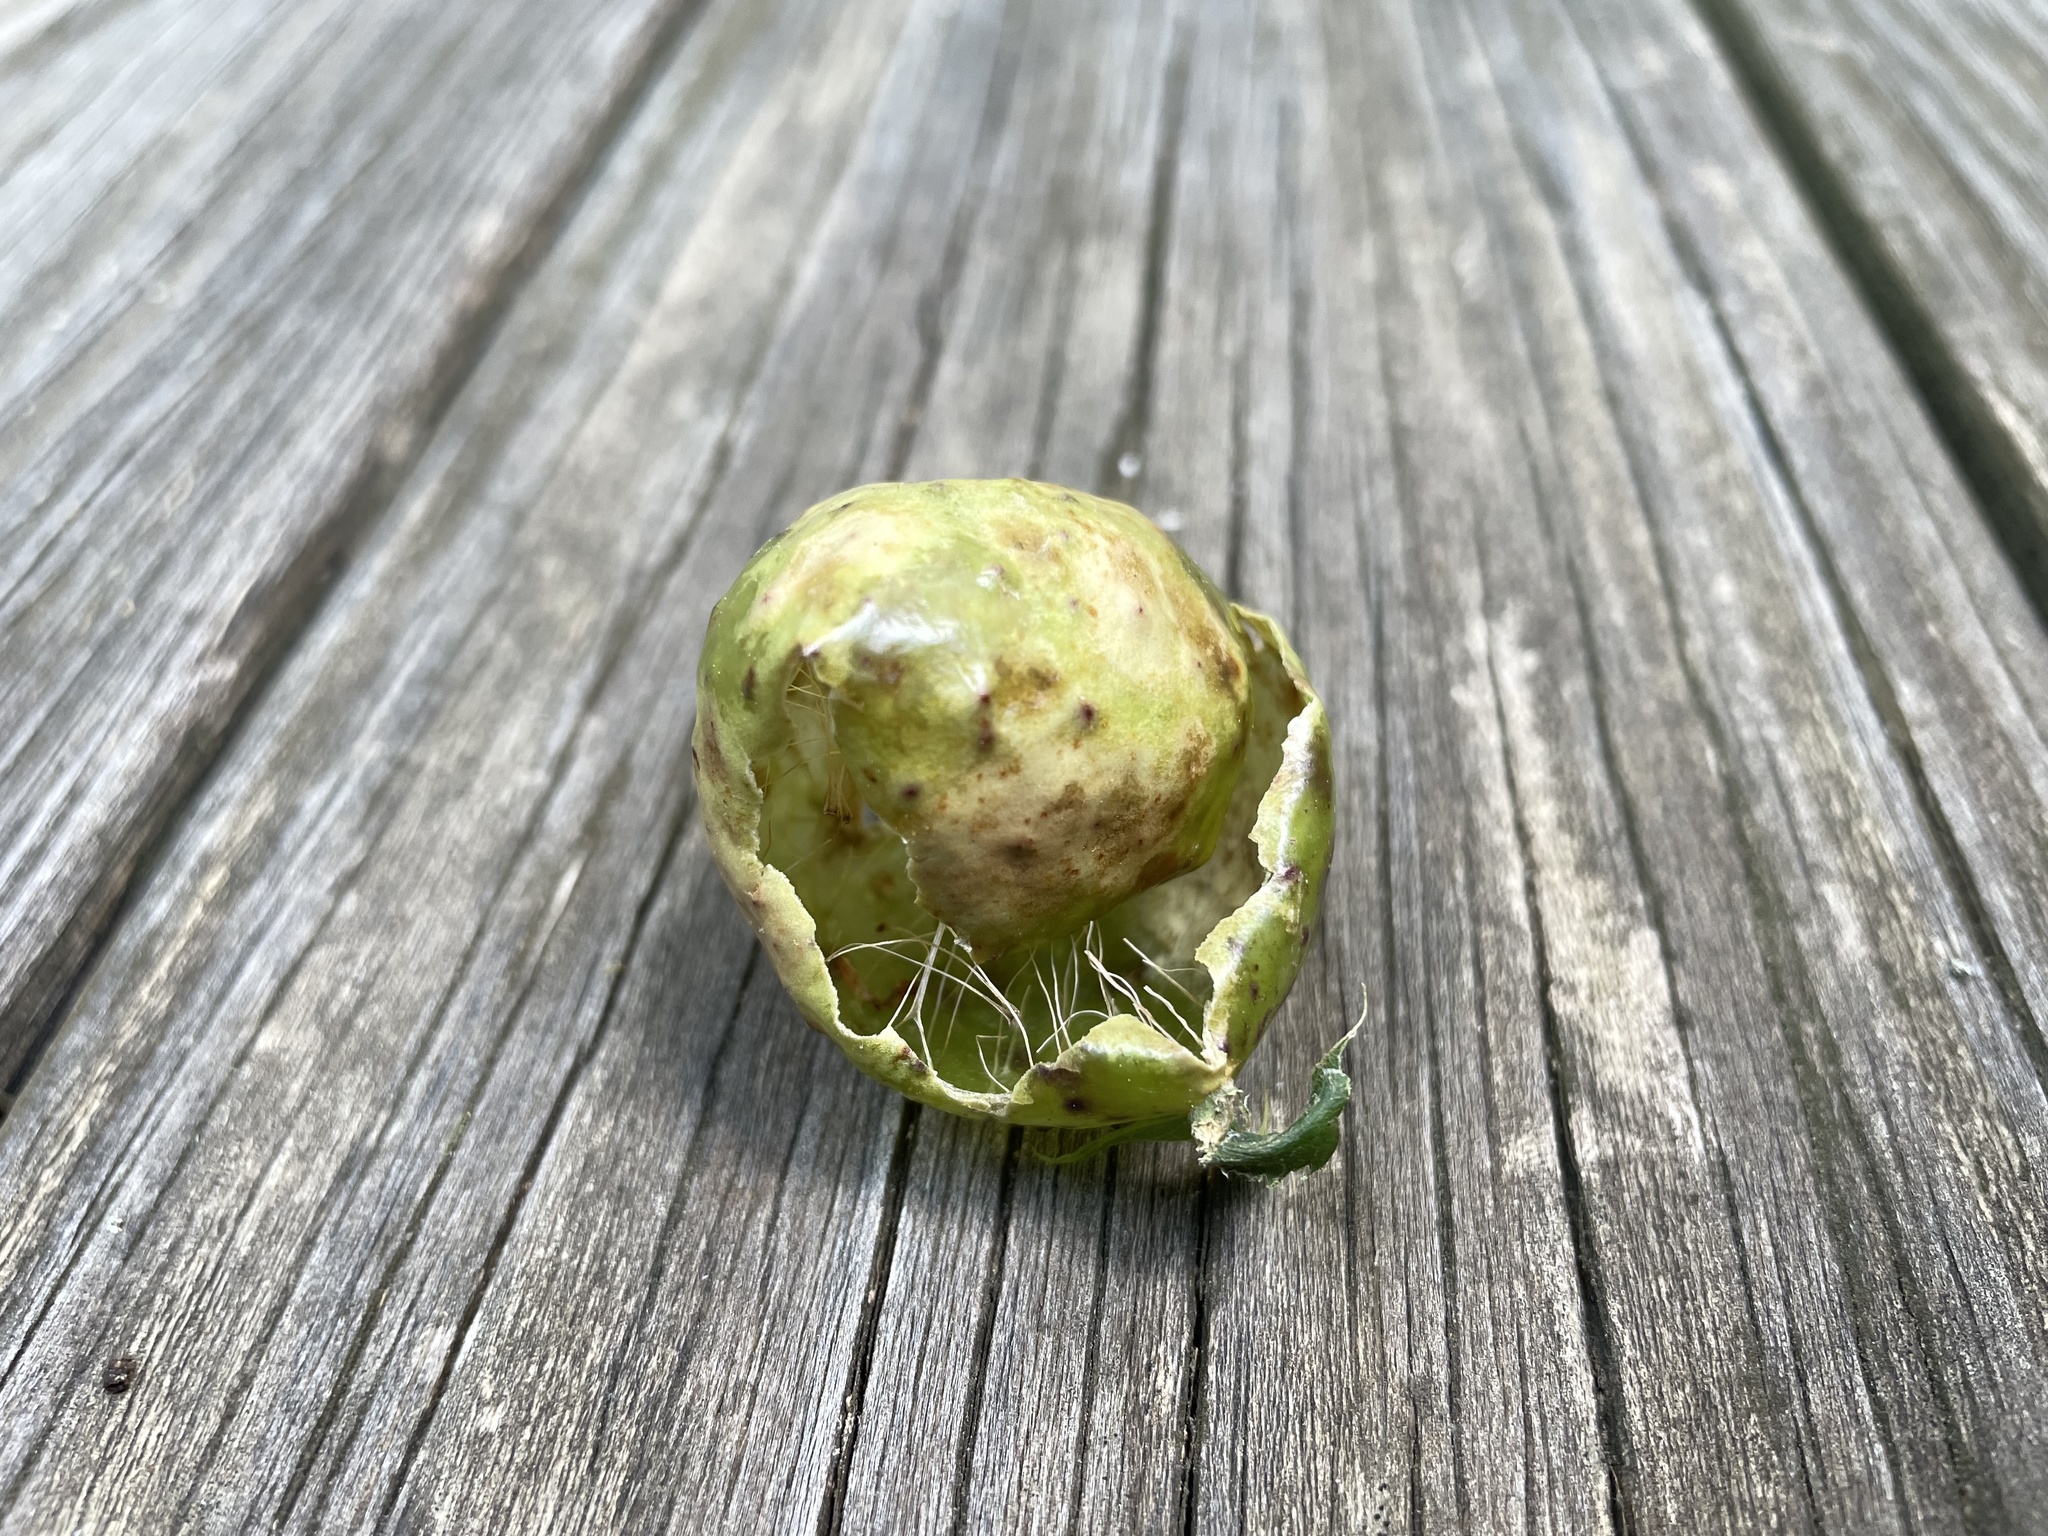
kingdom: Animalia
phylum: Arthropoda
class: Insecta
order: Hymenoptera
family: Cynipidae
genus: Amphibolips
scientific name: Amphibolips
